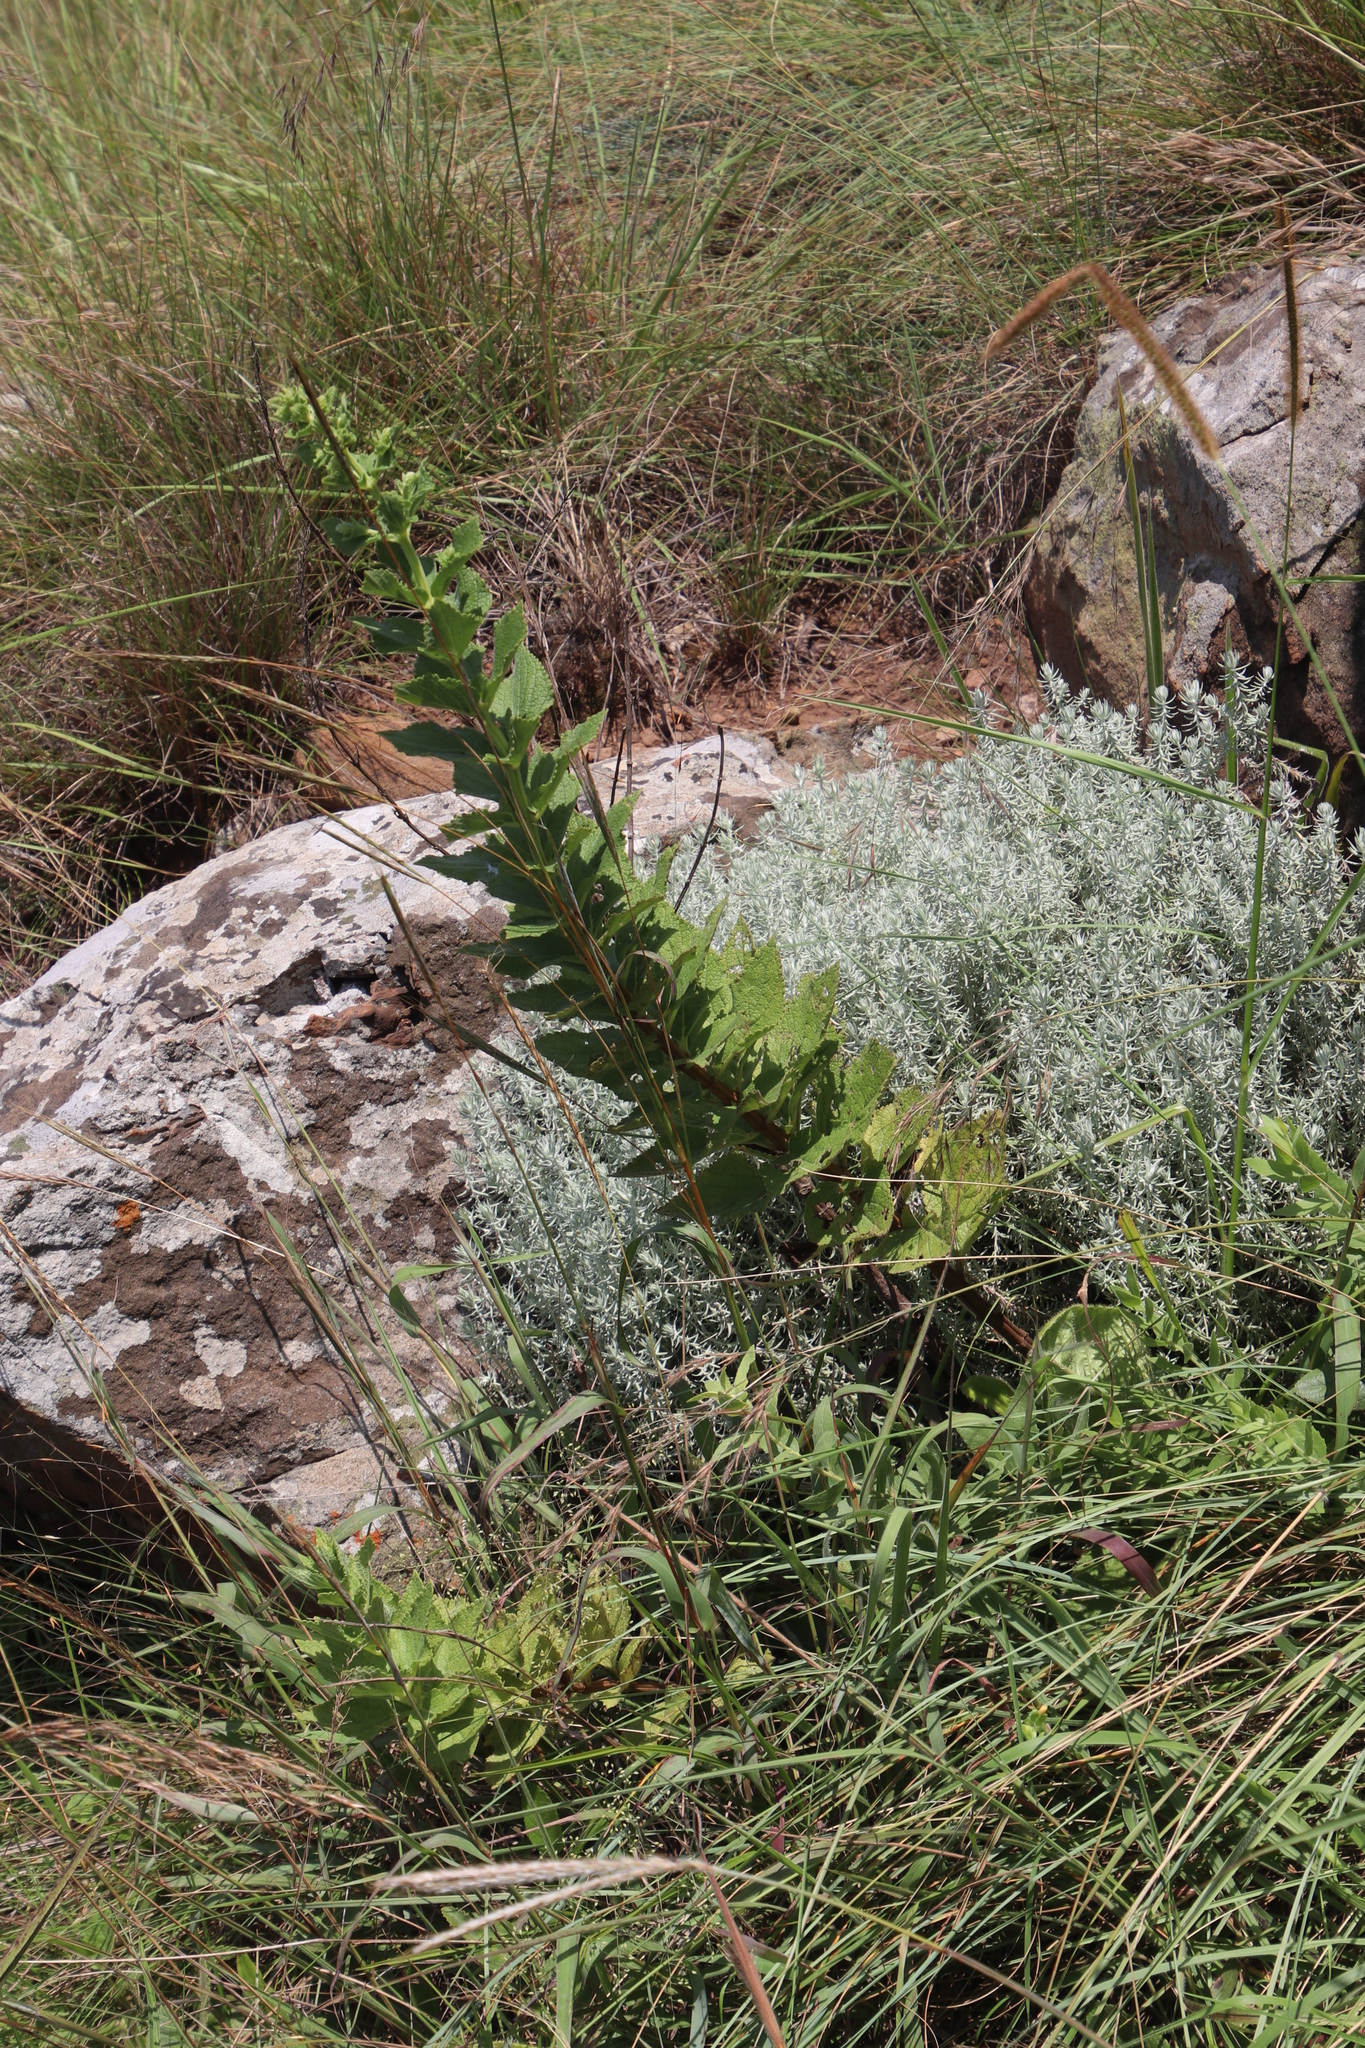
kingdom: Plantae
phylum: Tracheophyta
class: Magnoliopsida
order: Lamiales
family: Lamiaceae
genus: Coleus
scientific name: Coleus calycinus
